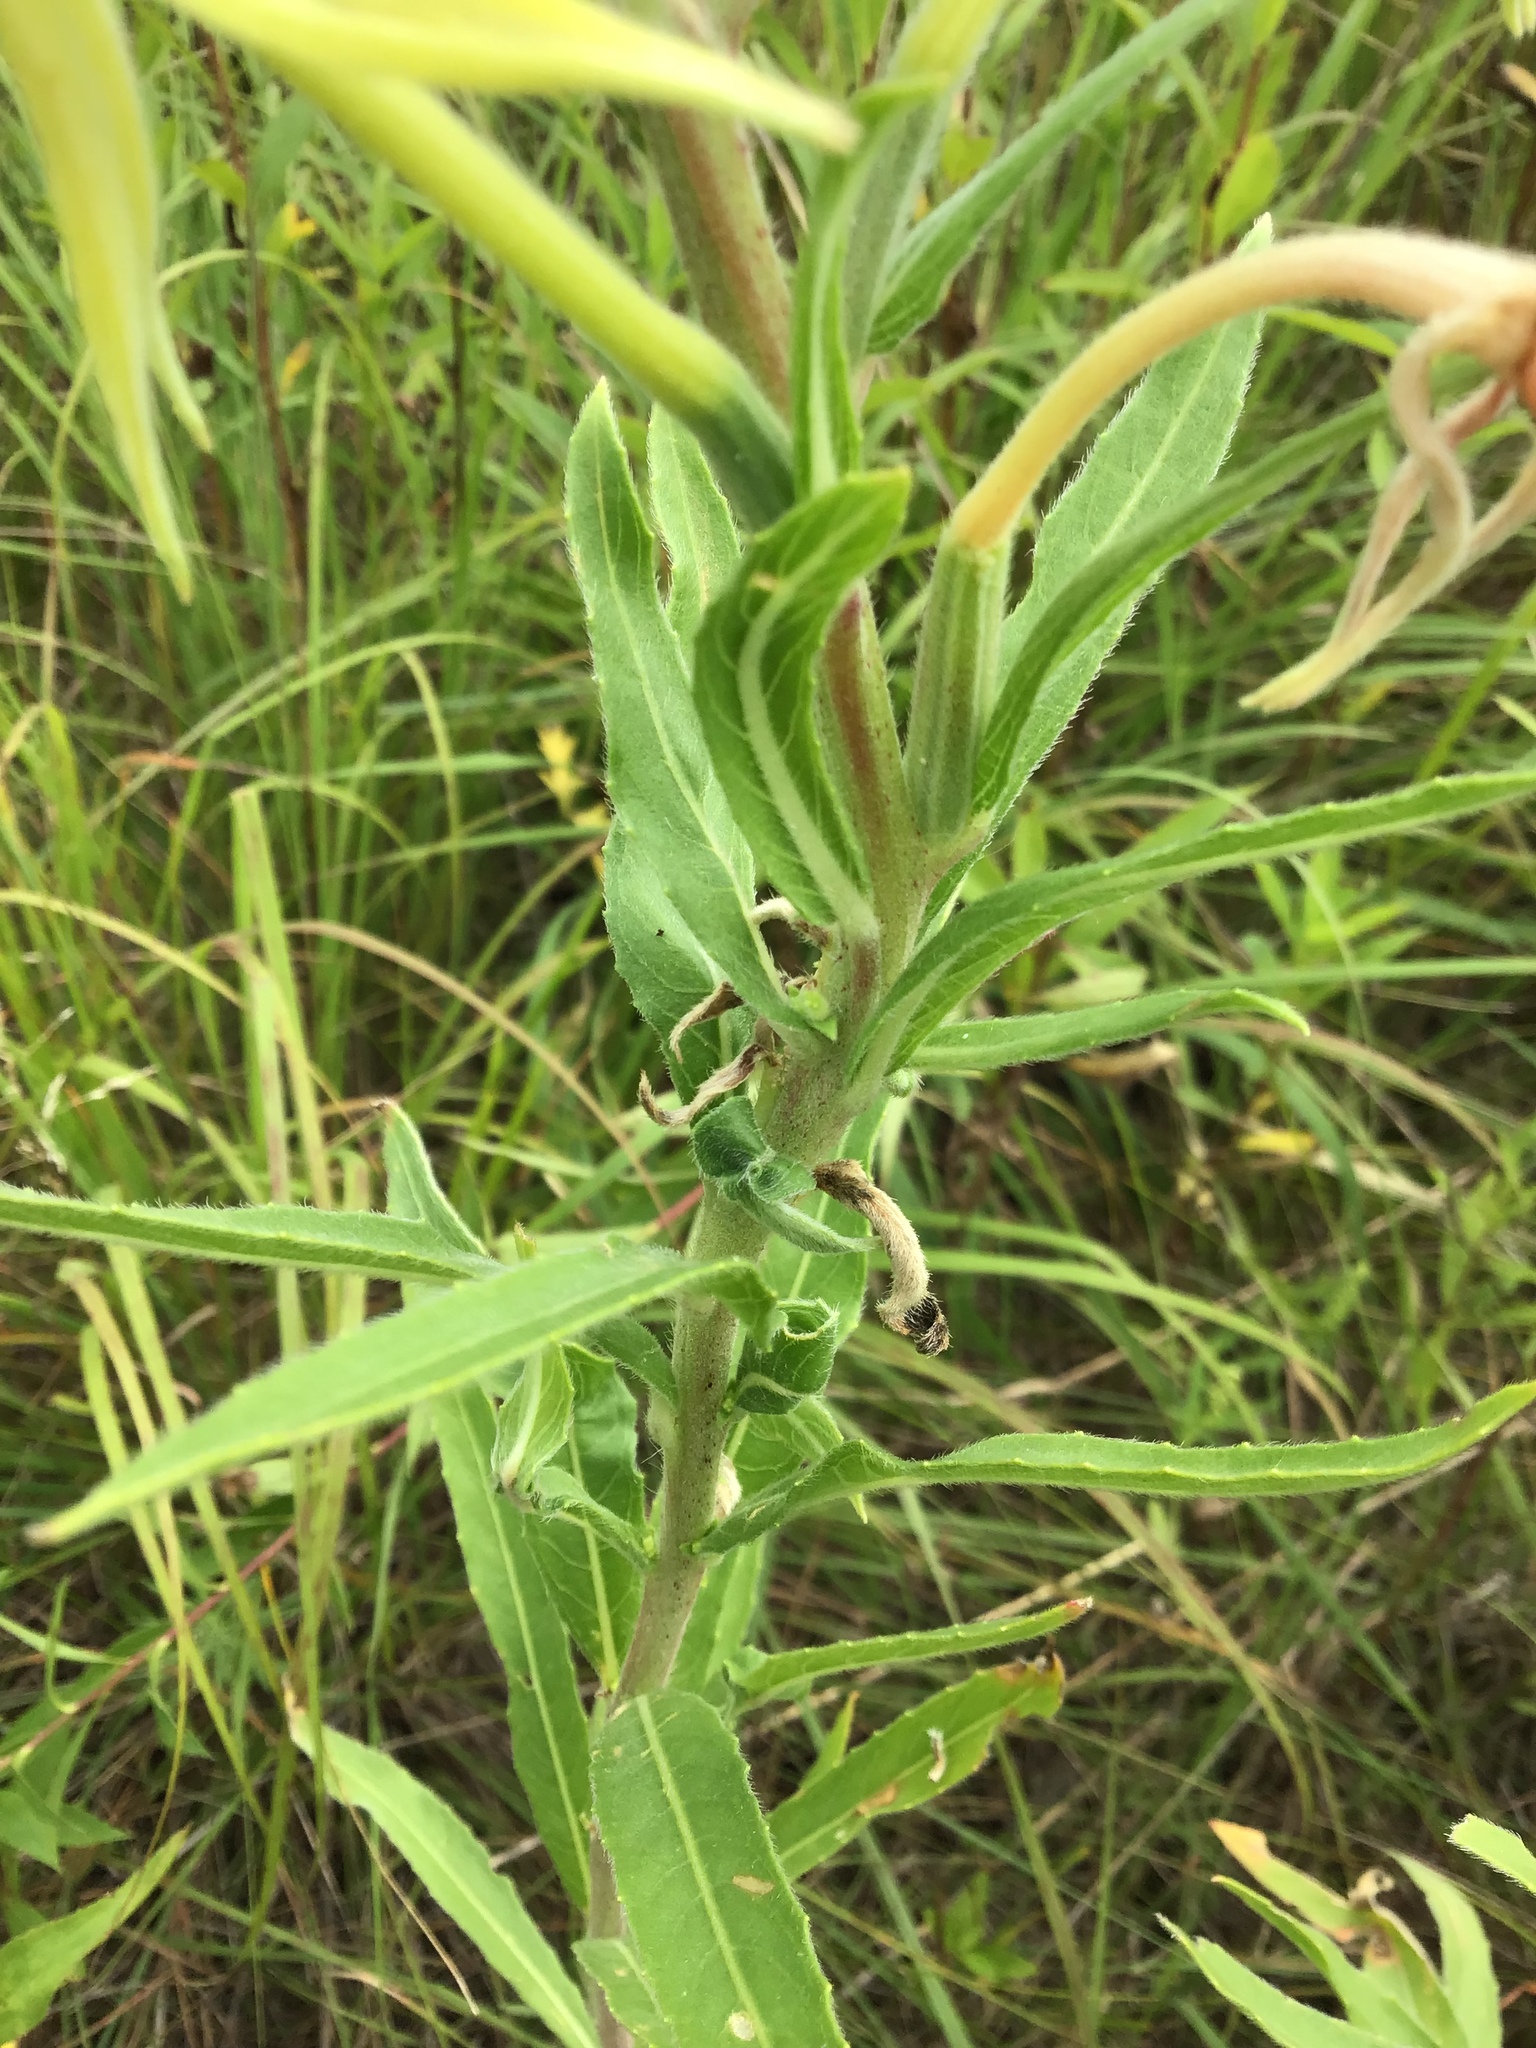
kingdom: Plantae
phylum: Tracheophyta
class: Magnoliopsida
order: Myrtales
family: Onagraceae
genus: Oenothera
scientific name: Oenothera biennis
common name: Common evening-primrose
